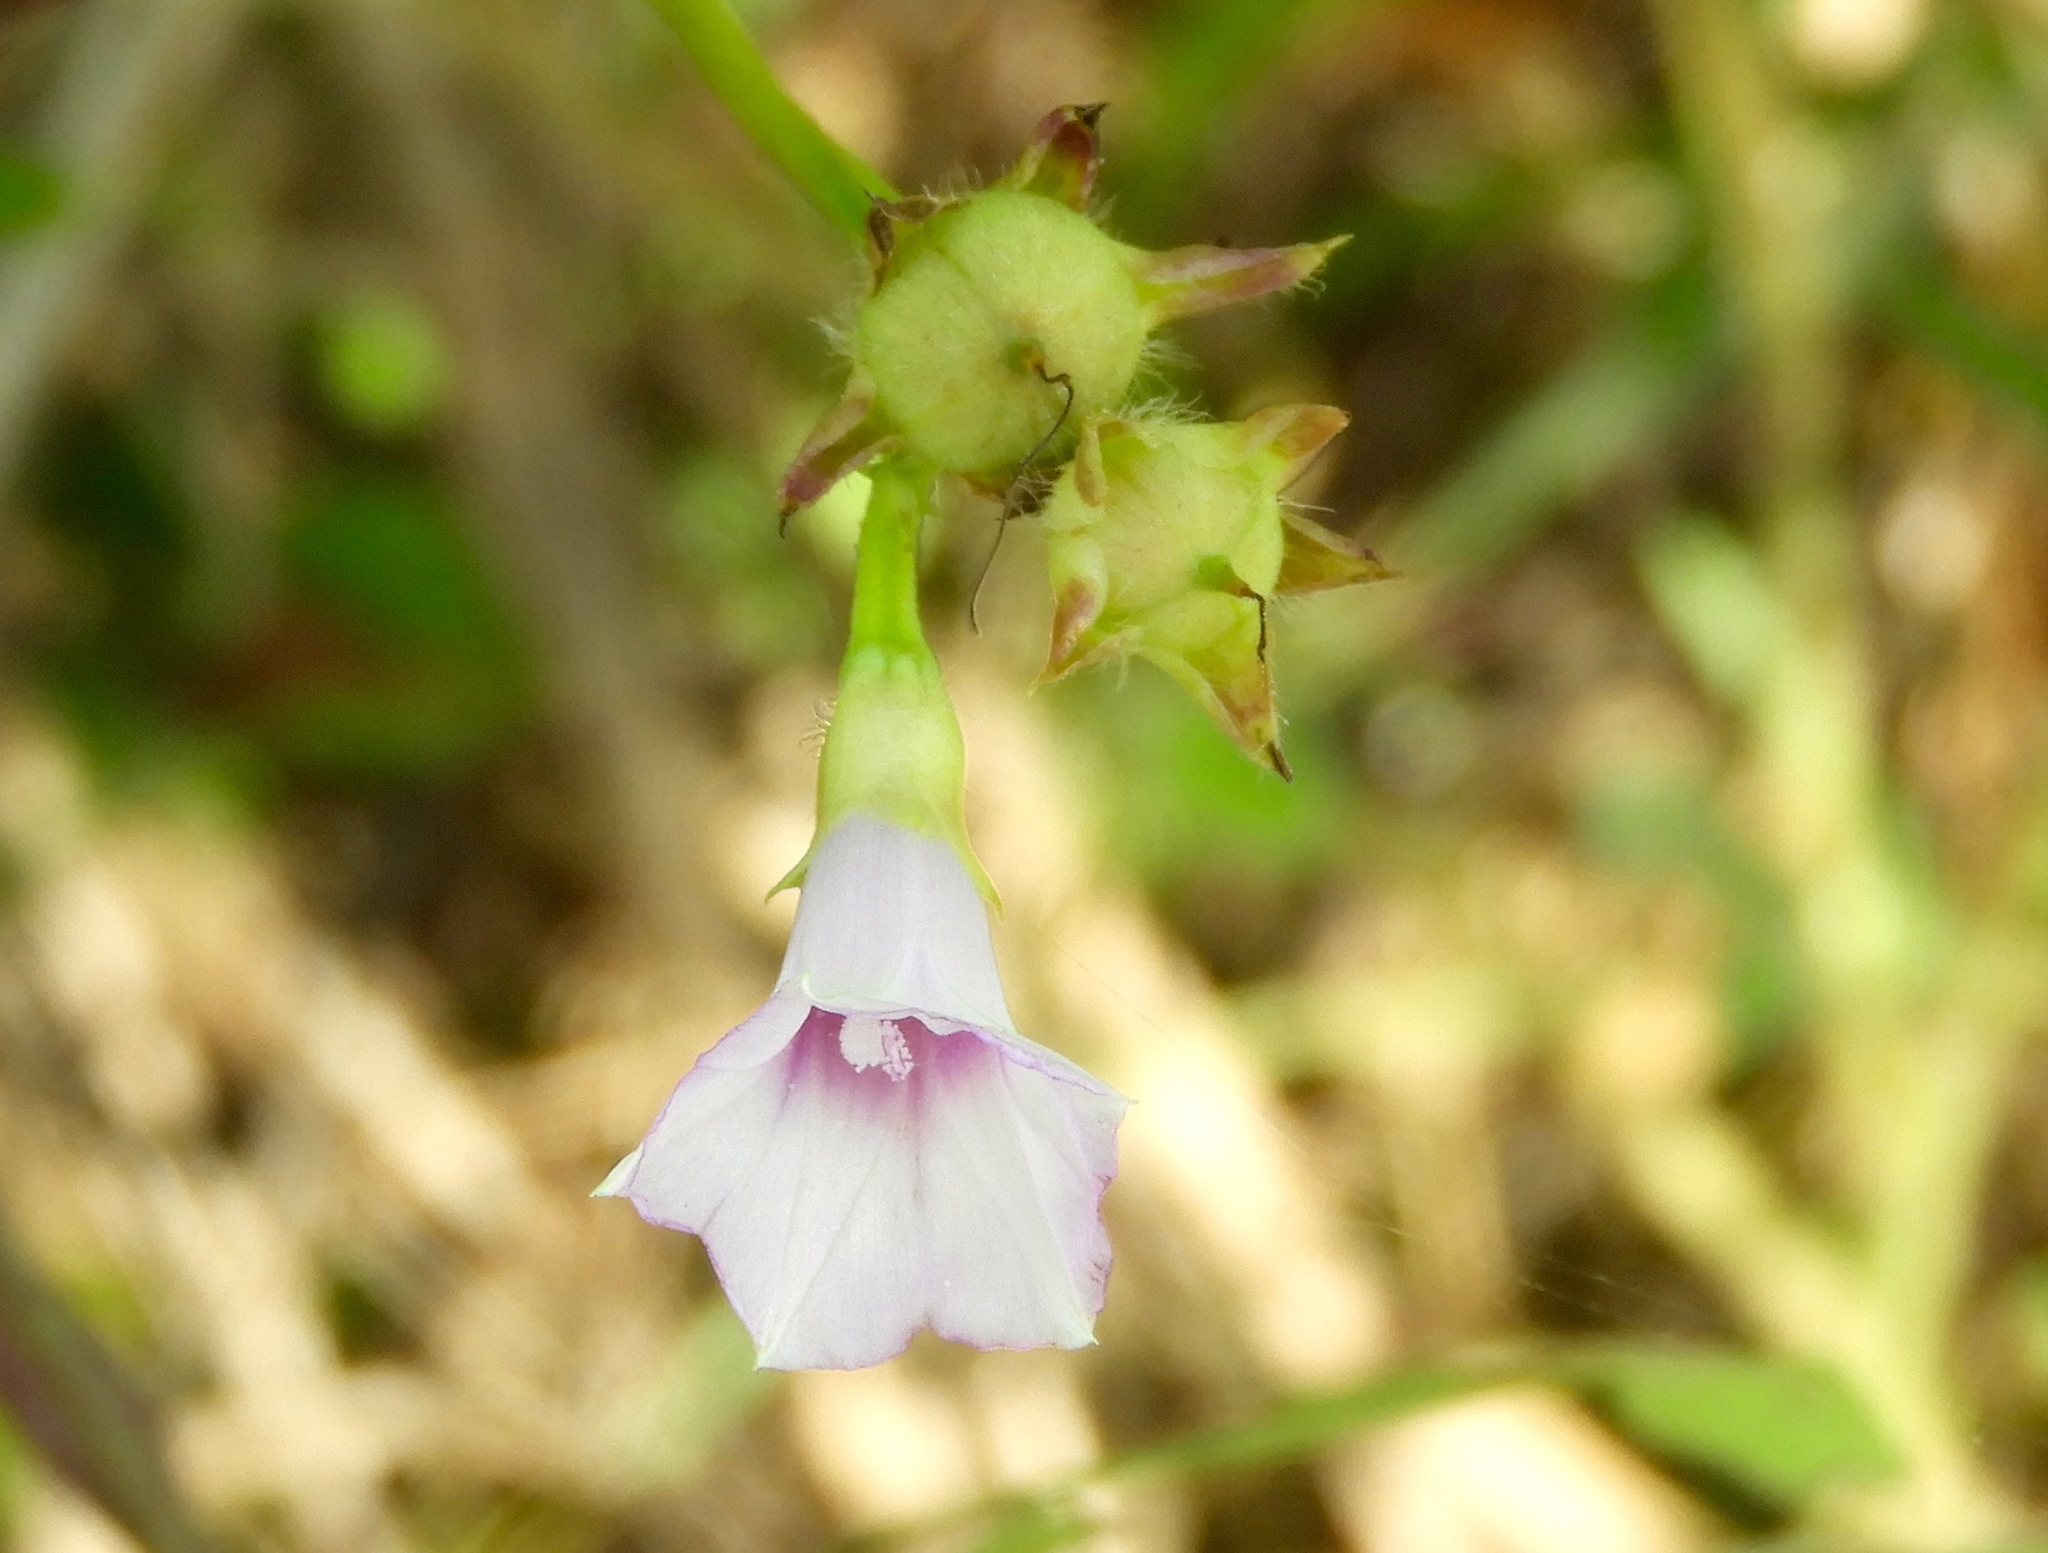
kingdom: Plantae
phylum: Tracheophyta
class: Magnoliopsida
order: Solanales
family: Convolvulaceae
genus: Ipomoea
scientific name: Ipomoea triloba
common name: Little-bell
